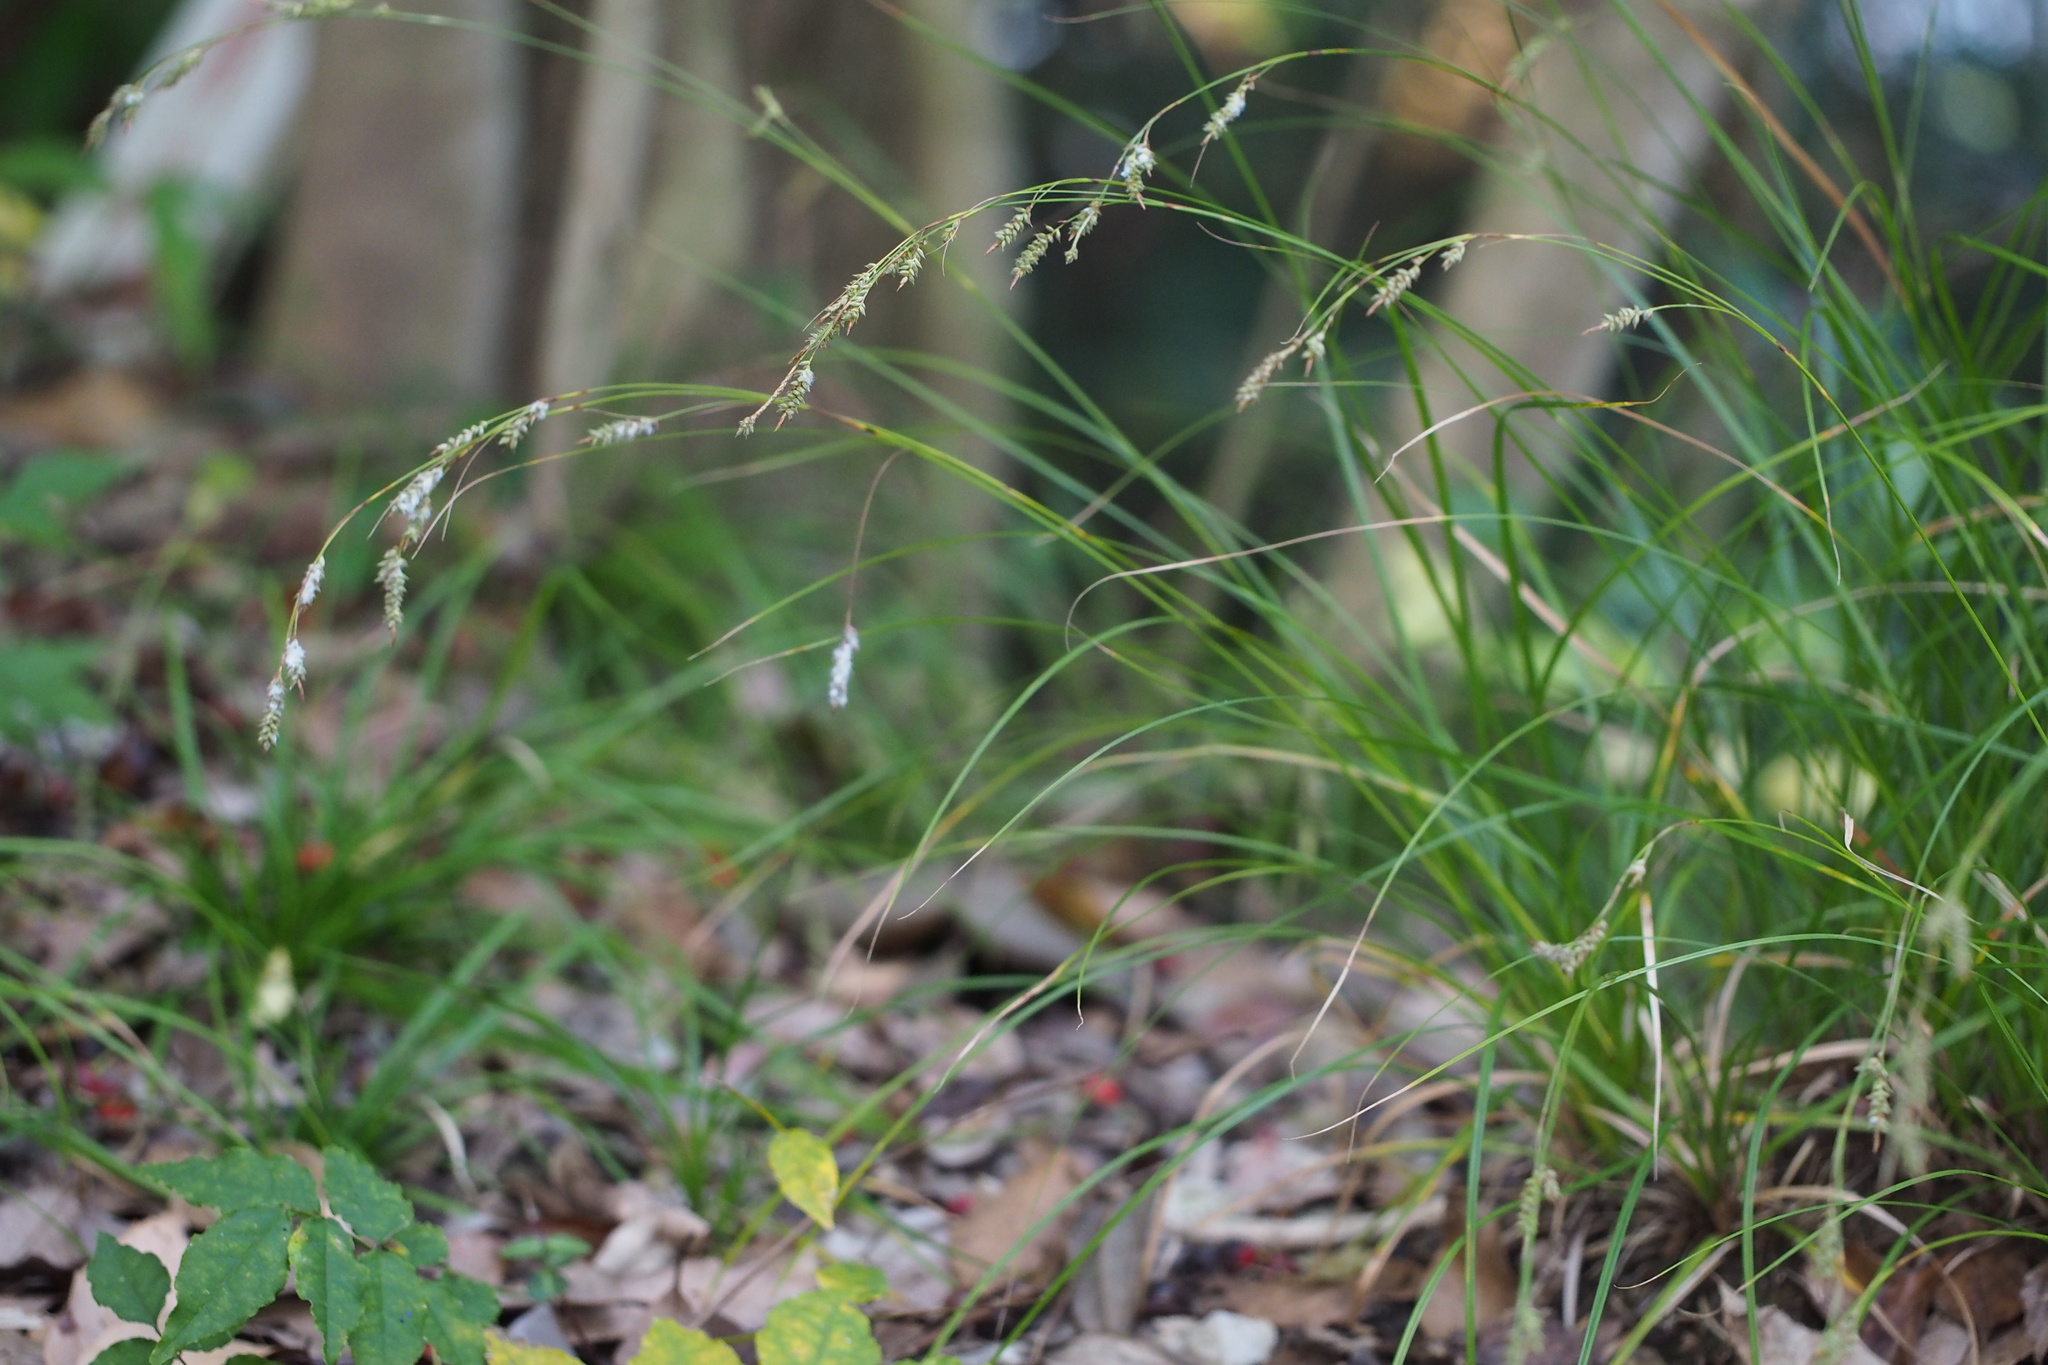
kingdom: Plantae
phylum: Tracheophyta
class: Liliopsida
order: Poales
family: Cyperaceae
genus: Carex
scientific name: Carex lenta
